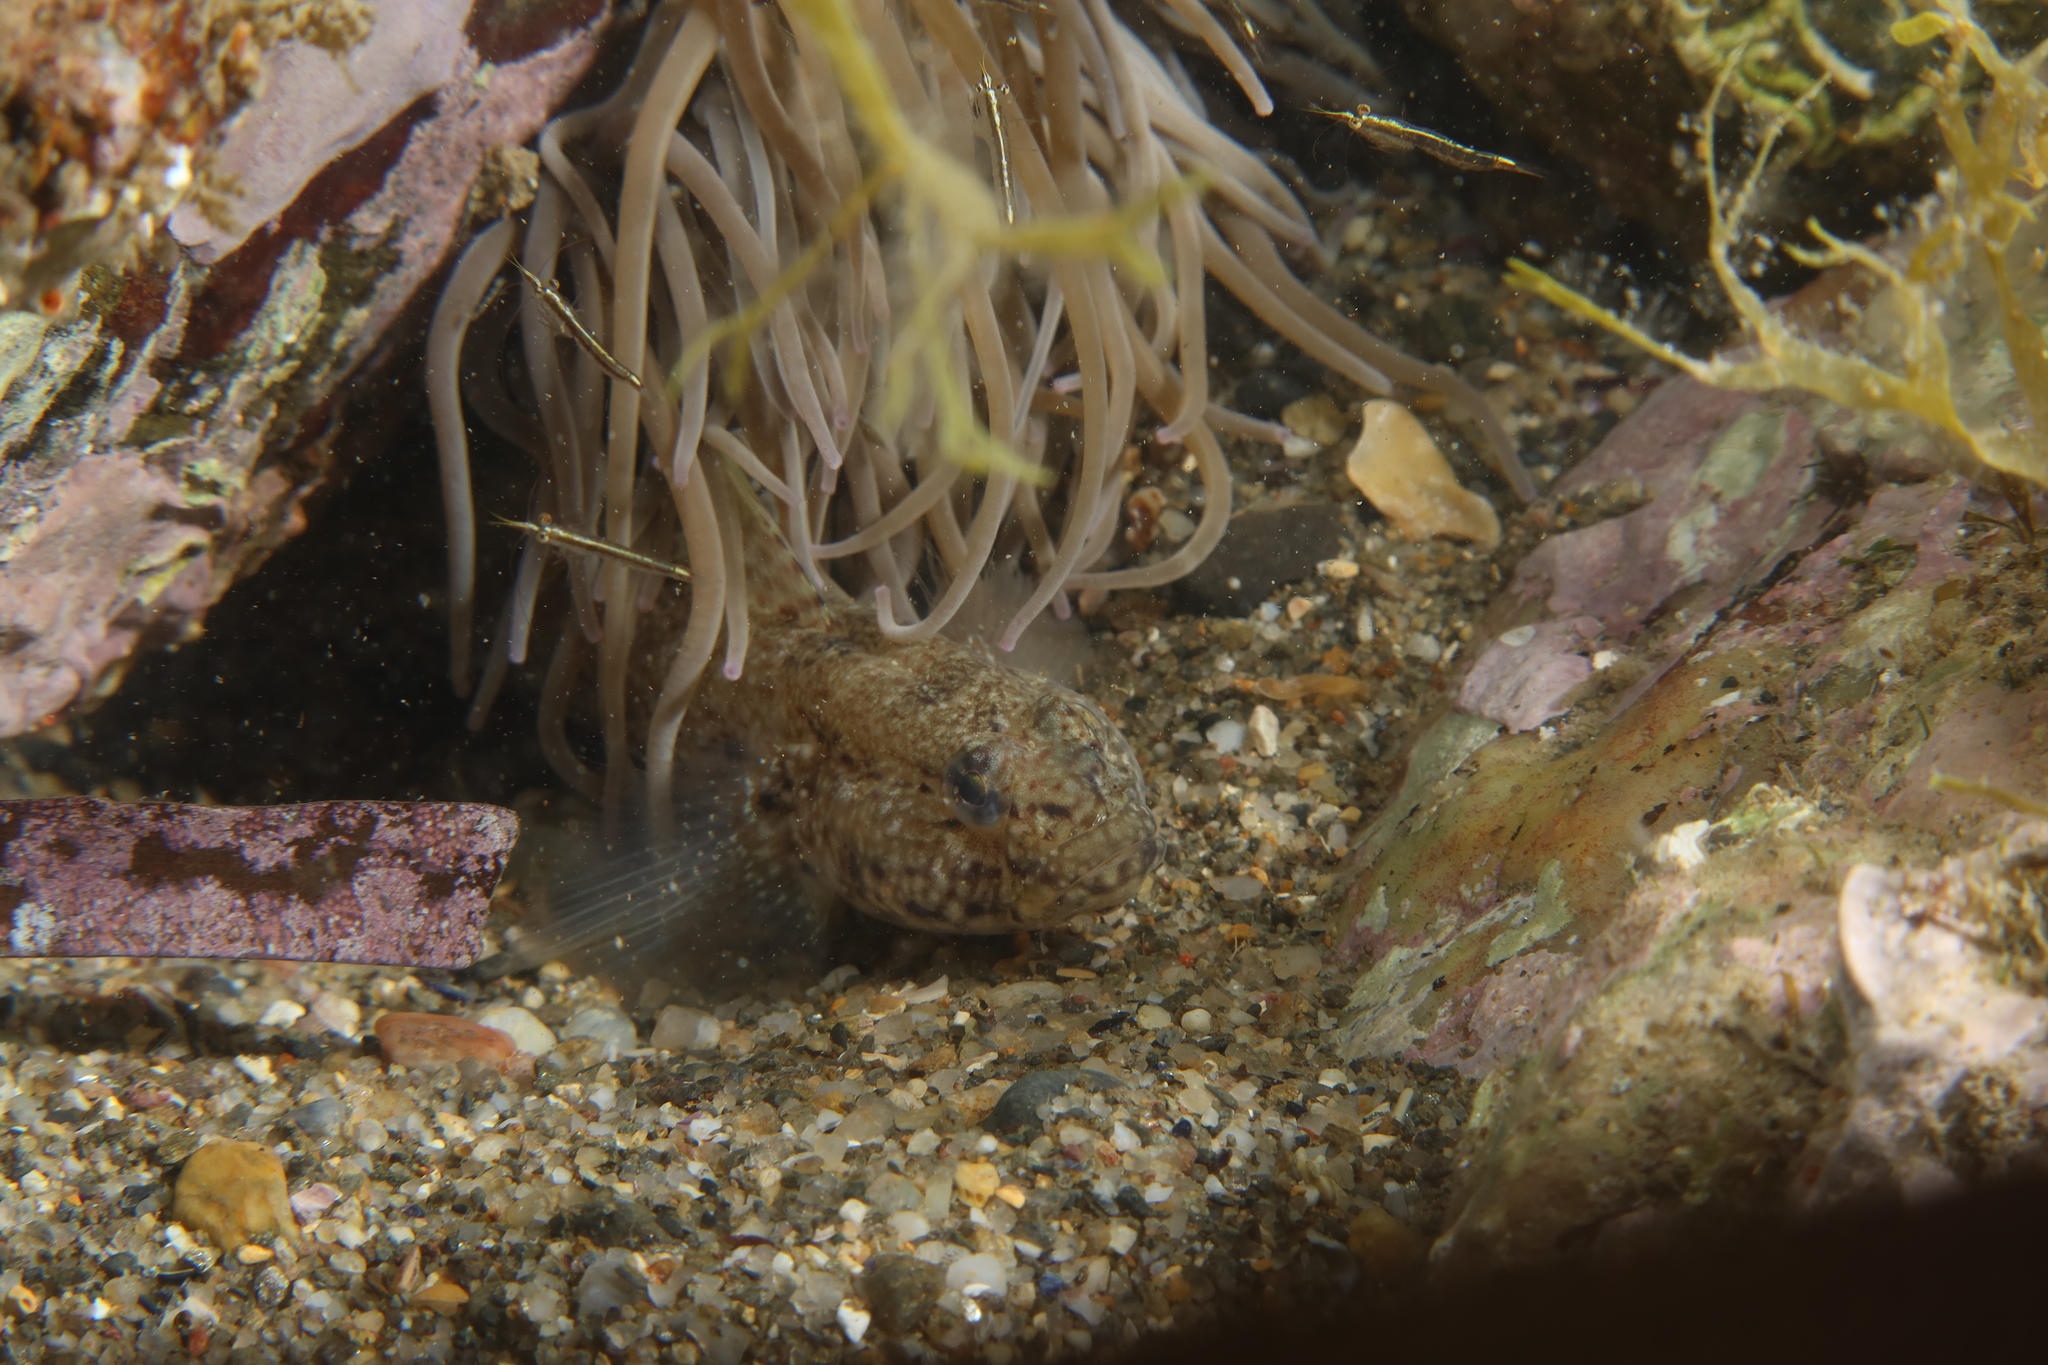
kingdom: Animalia
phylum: Chordata
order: Perciformes
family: Gobiidae
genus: Gobius
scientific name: Gobius incognitus
